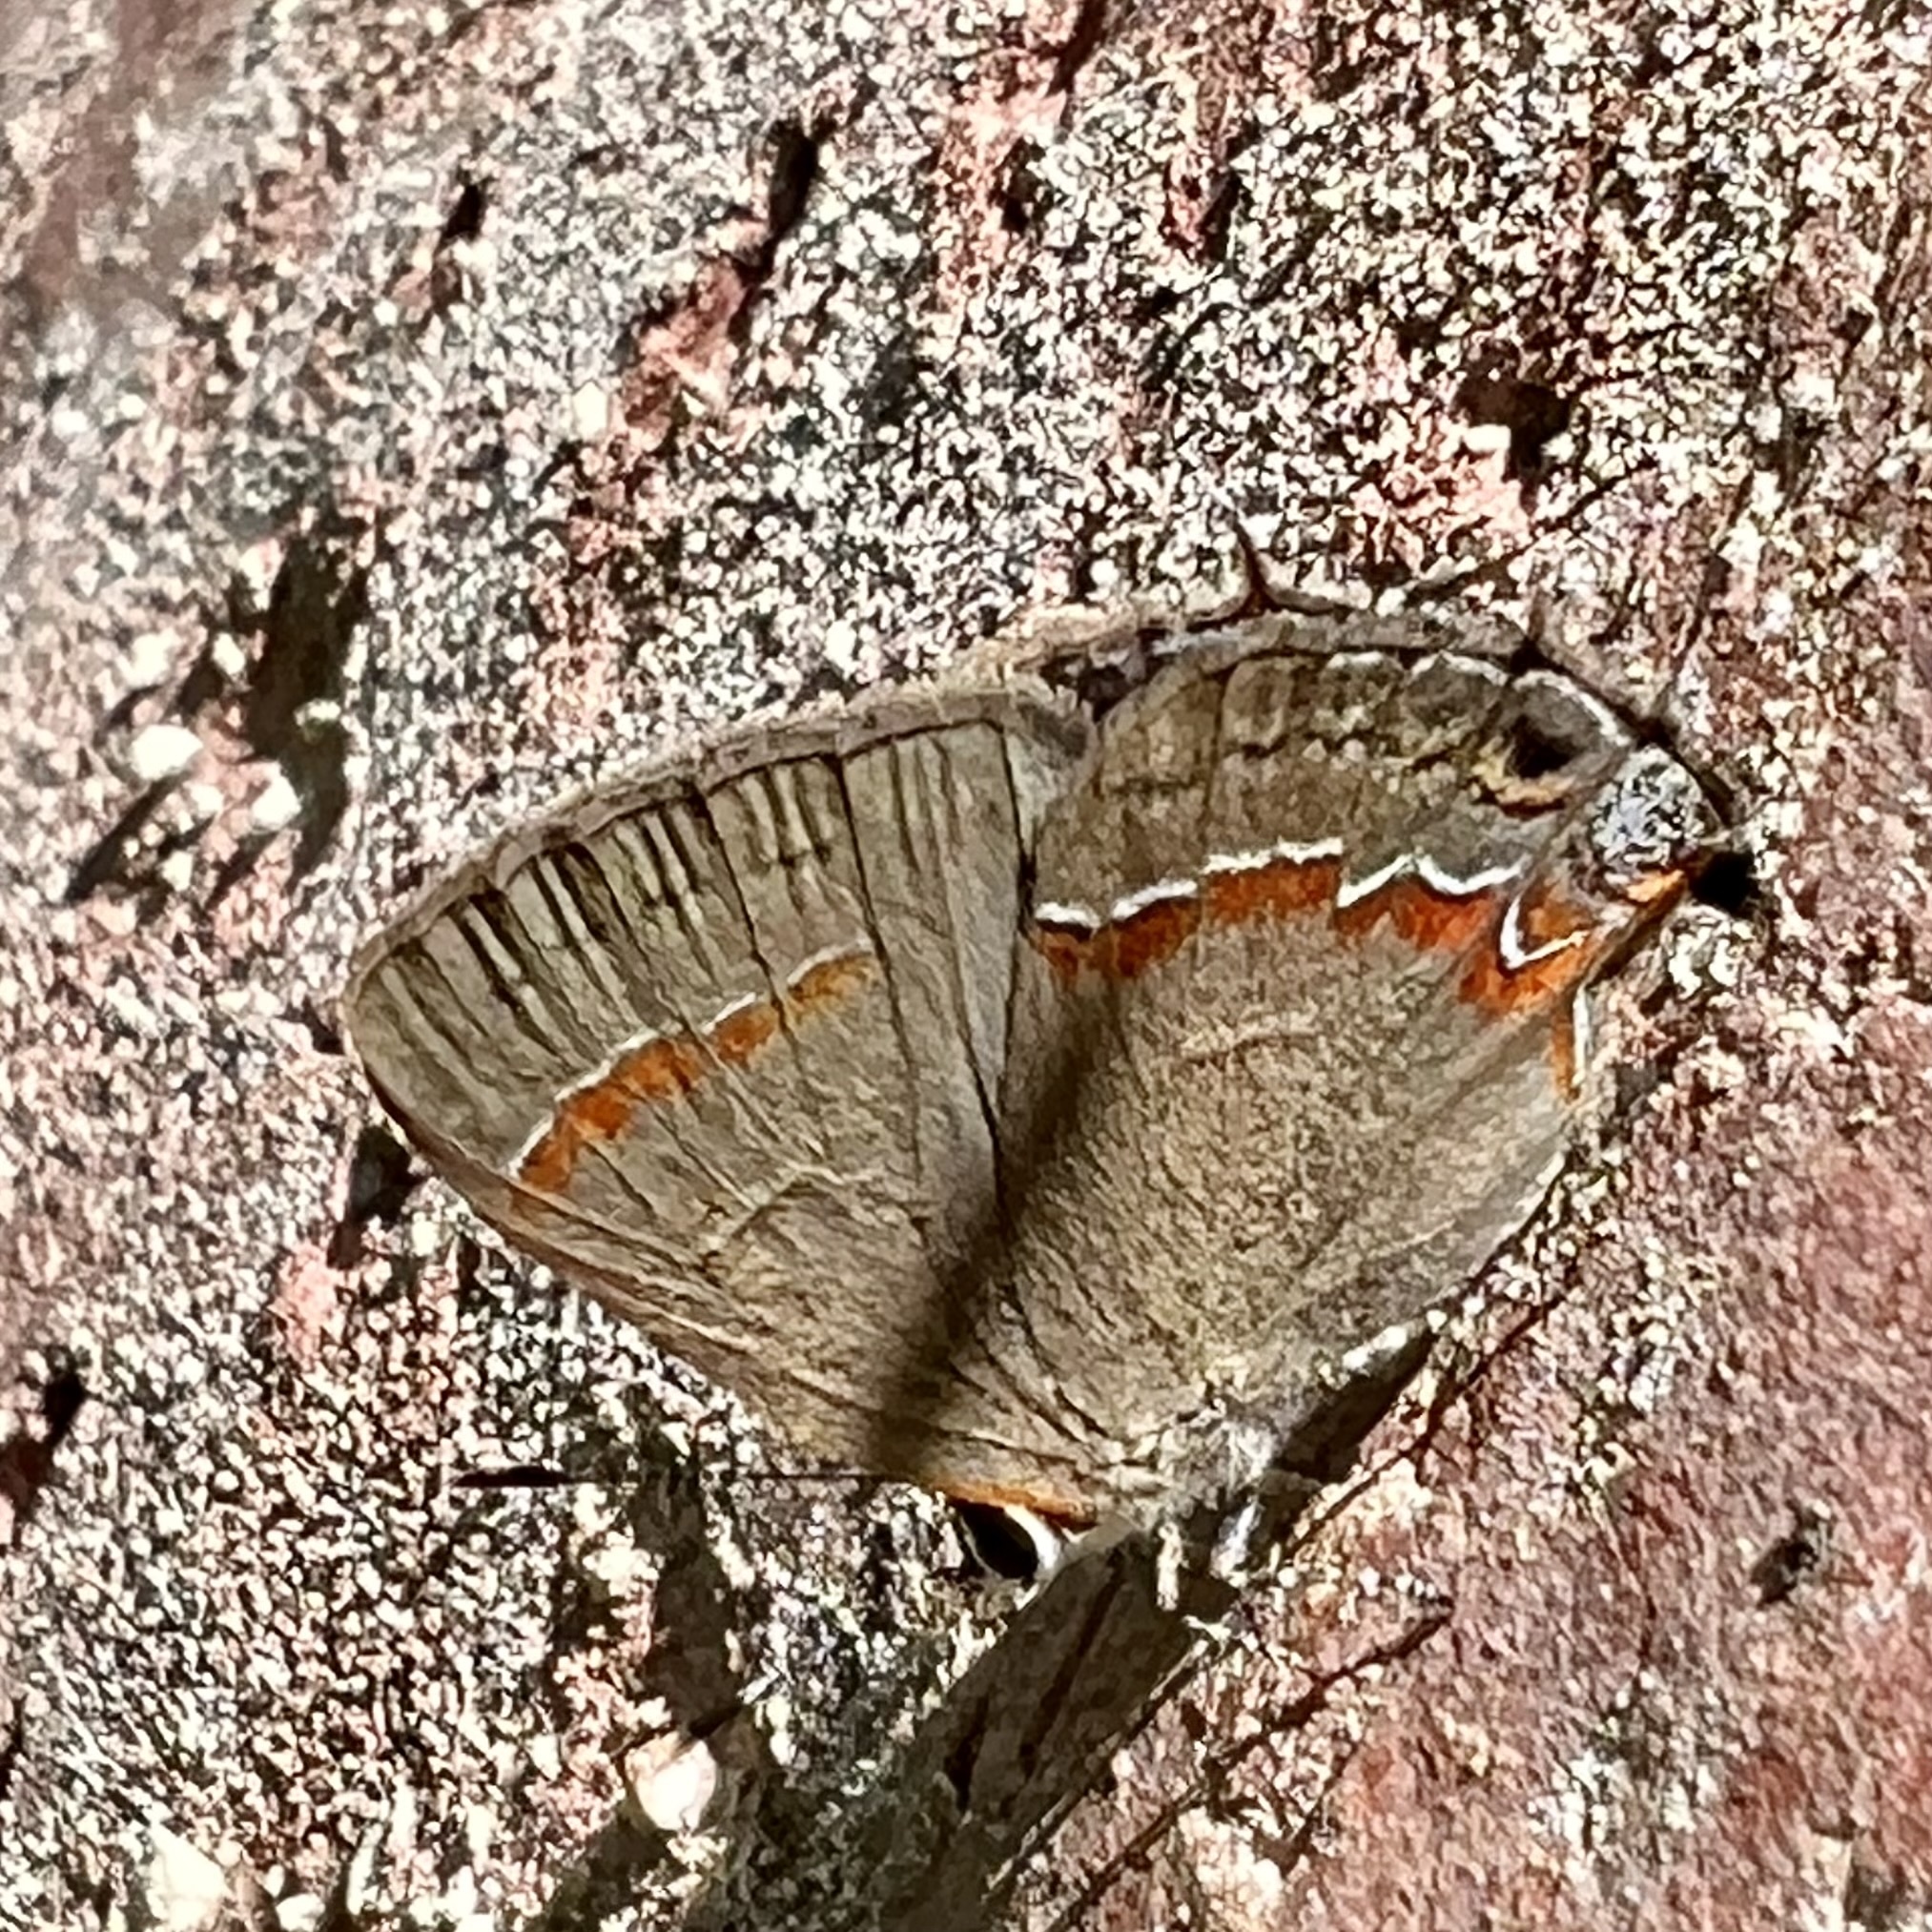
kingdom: Animalia
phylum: Arthropoda
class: Insecta
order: Lepidoptera
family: Lycaenidae
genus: Calycopis
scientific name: Calycopis cecrops
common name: Red-banded hairstreak
